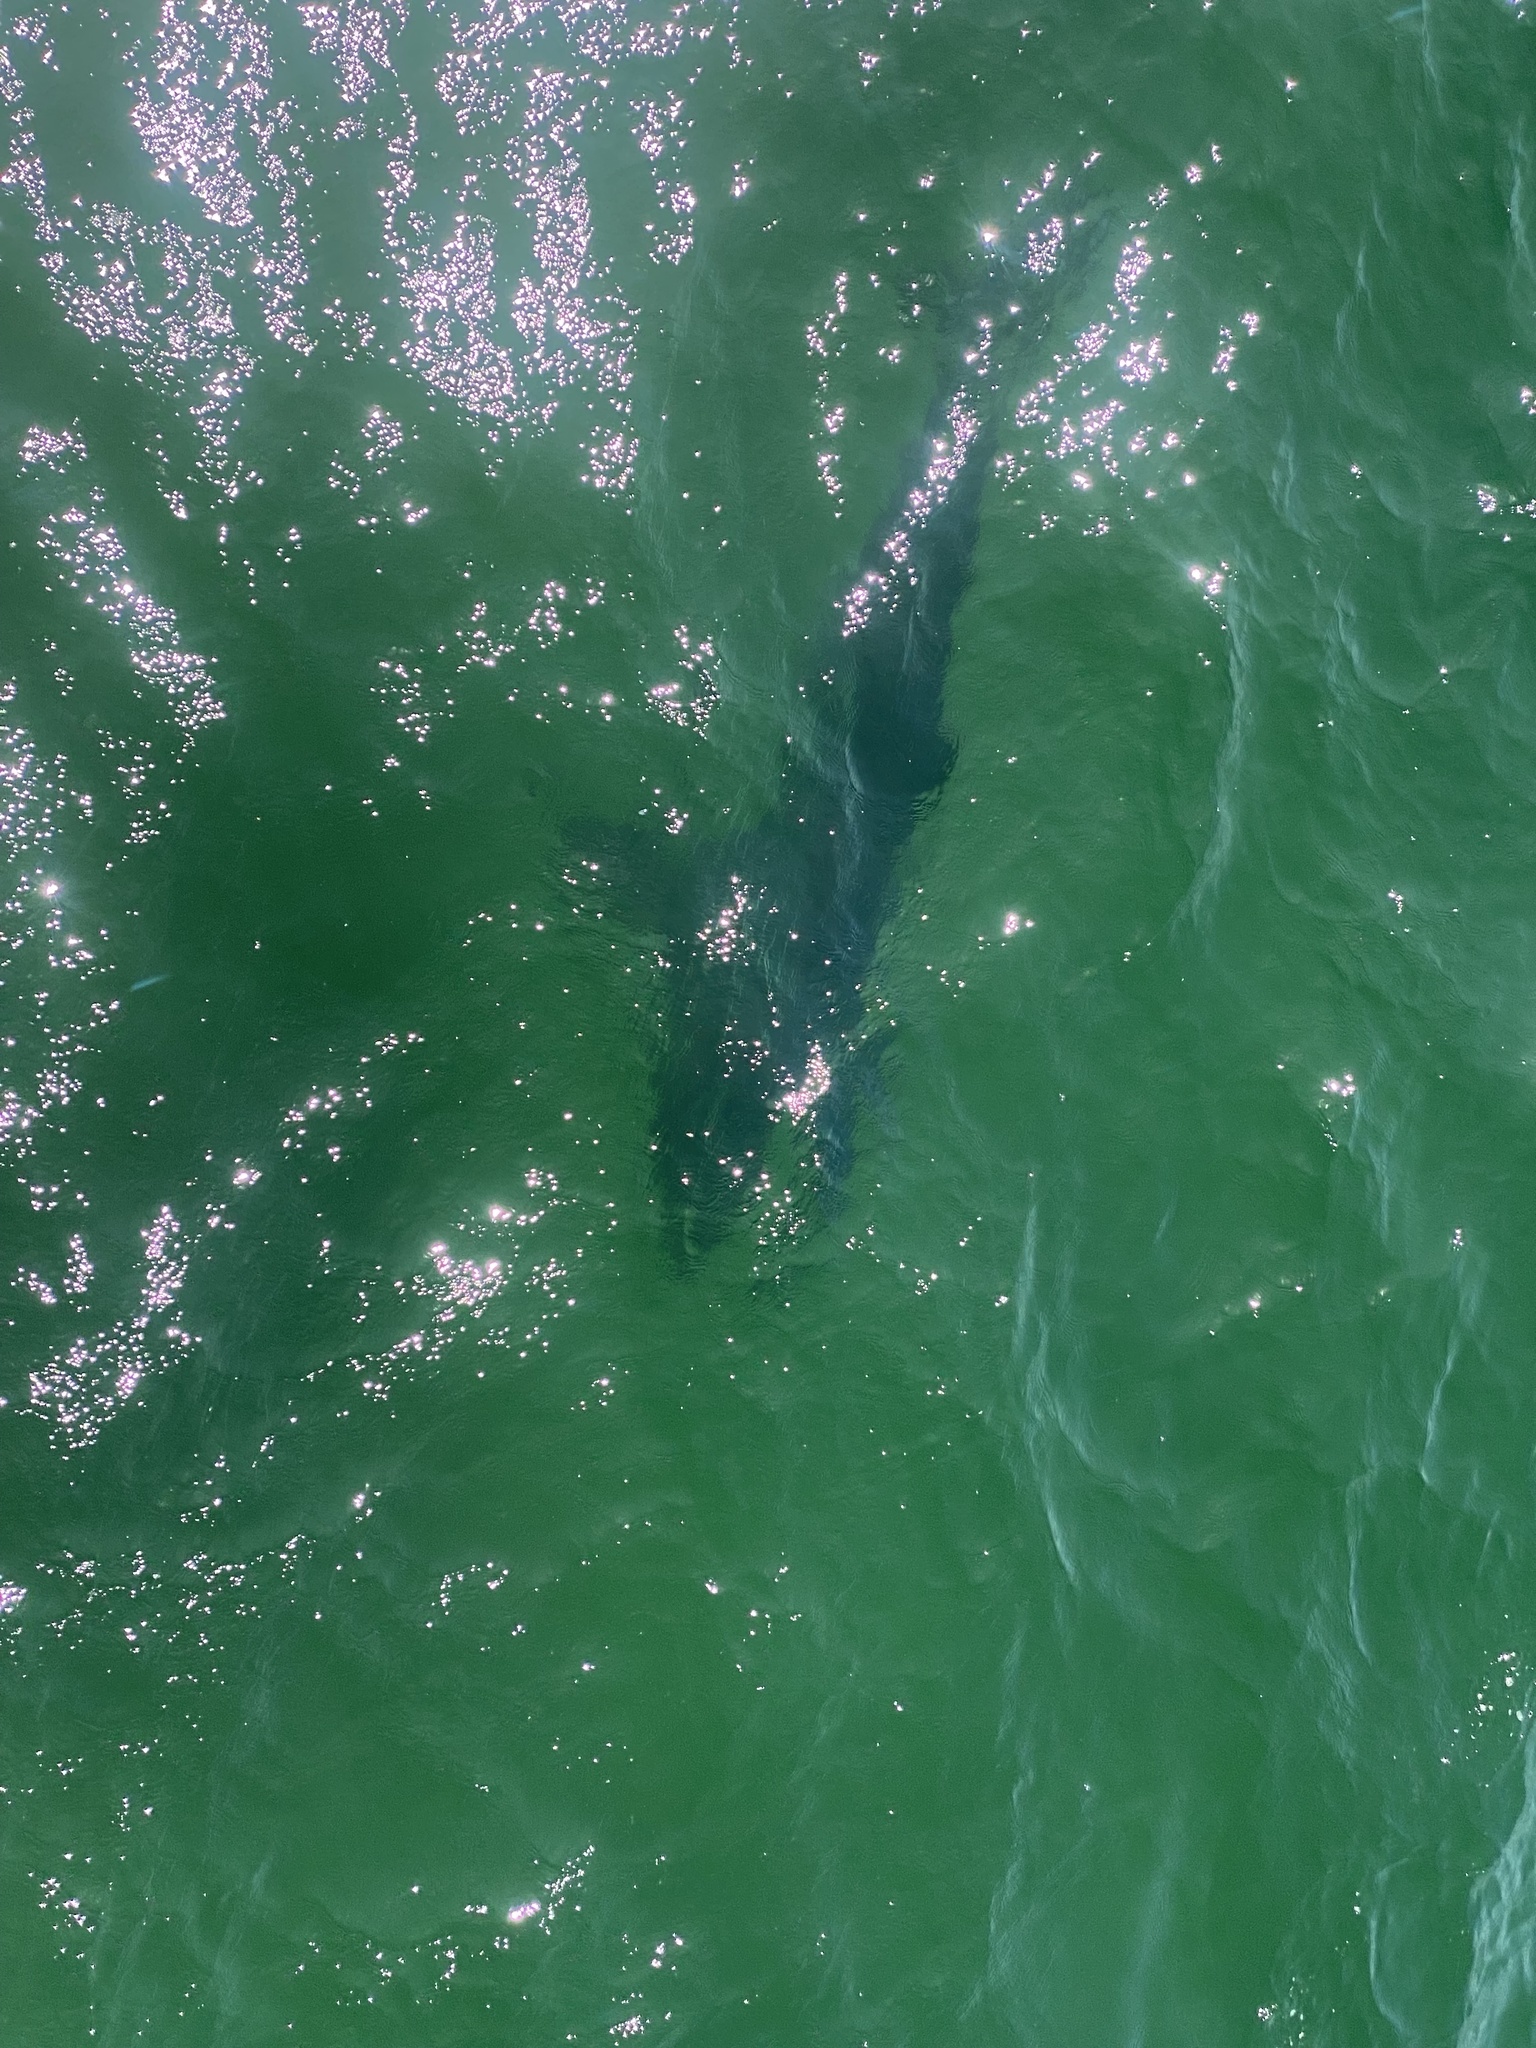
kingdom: Animalia
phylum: Chordata
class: Elasmobranchii
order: Lamniformes
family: Lamnidae
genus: Carcharodon
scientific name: Carcharodon carcharias
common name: Great white shark
